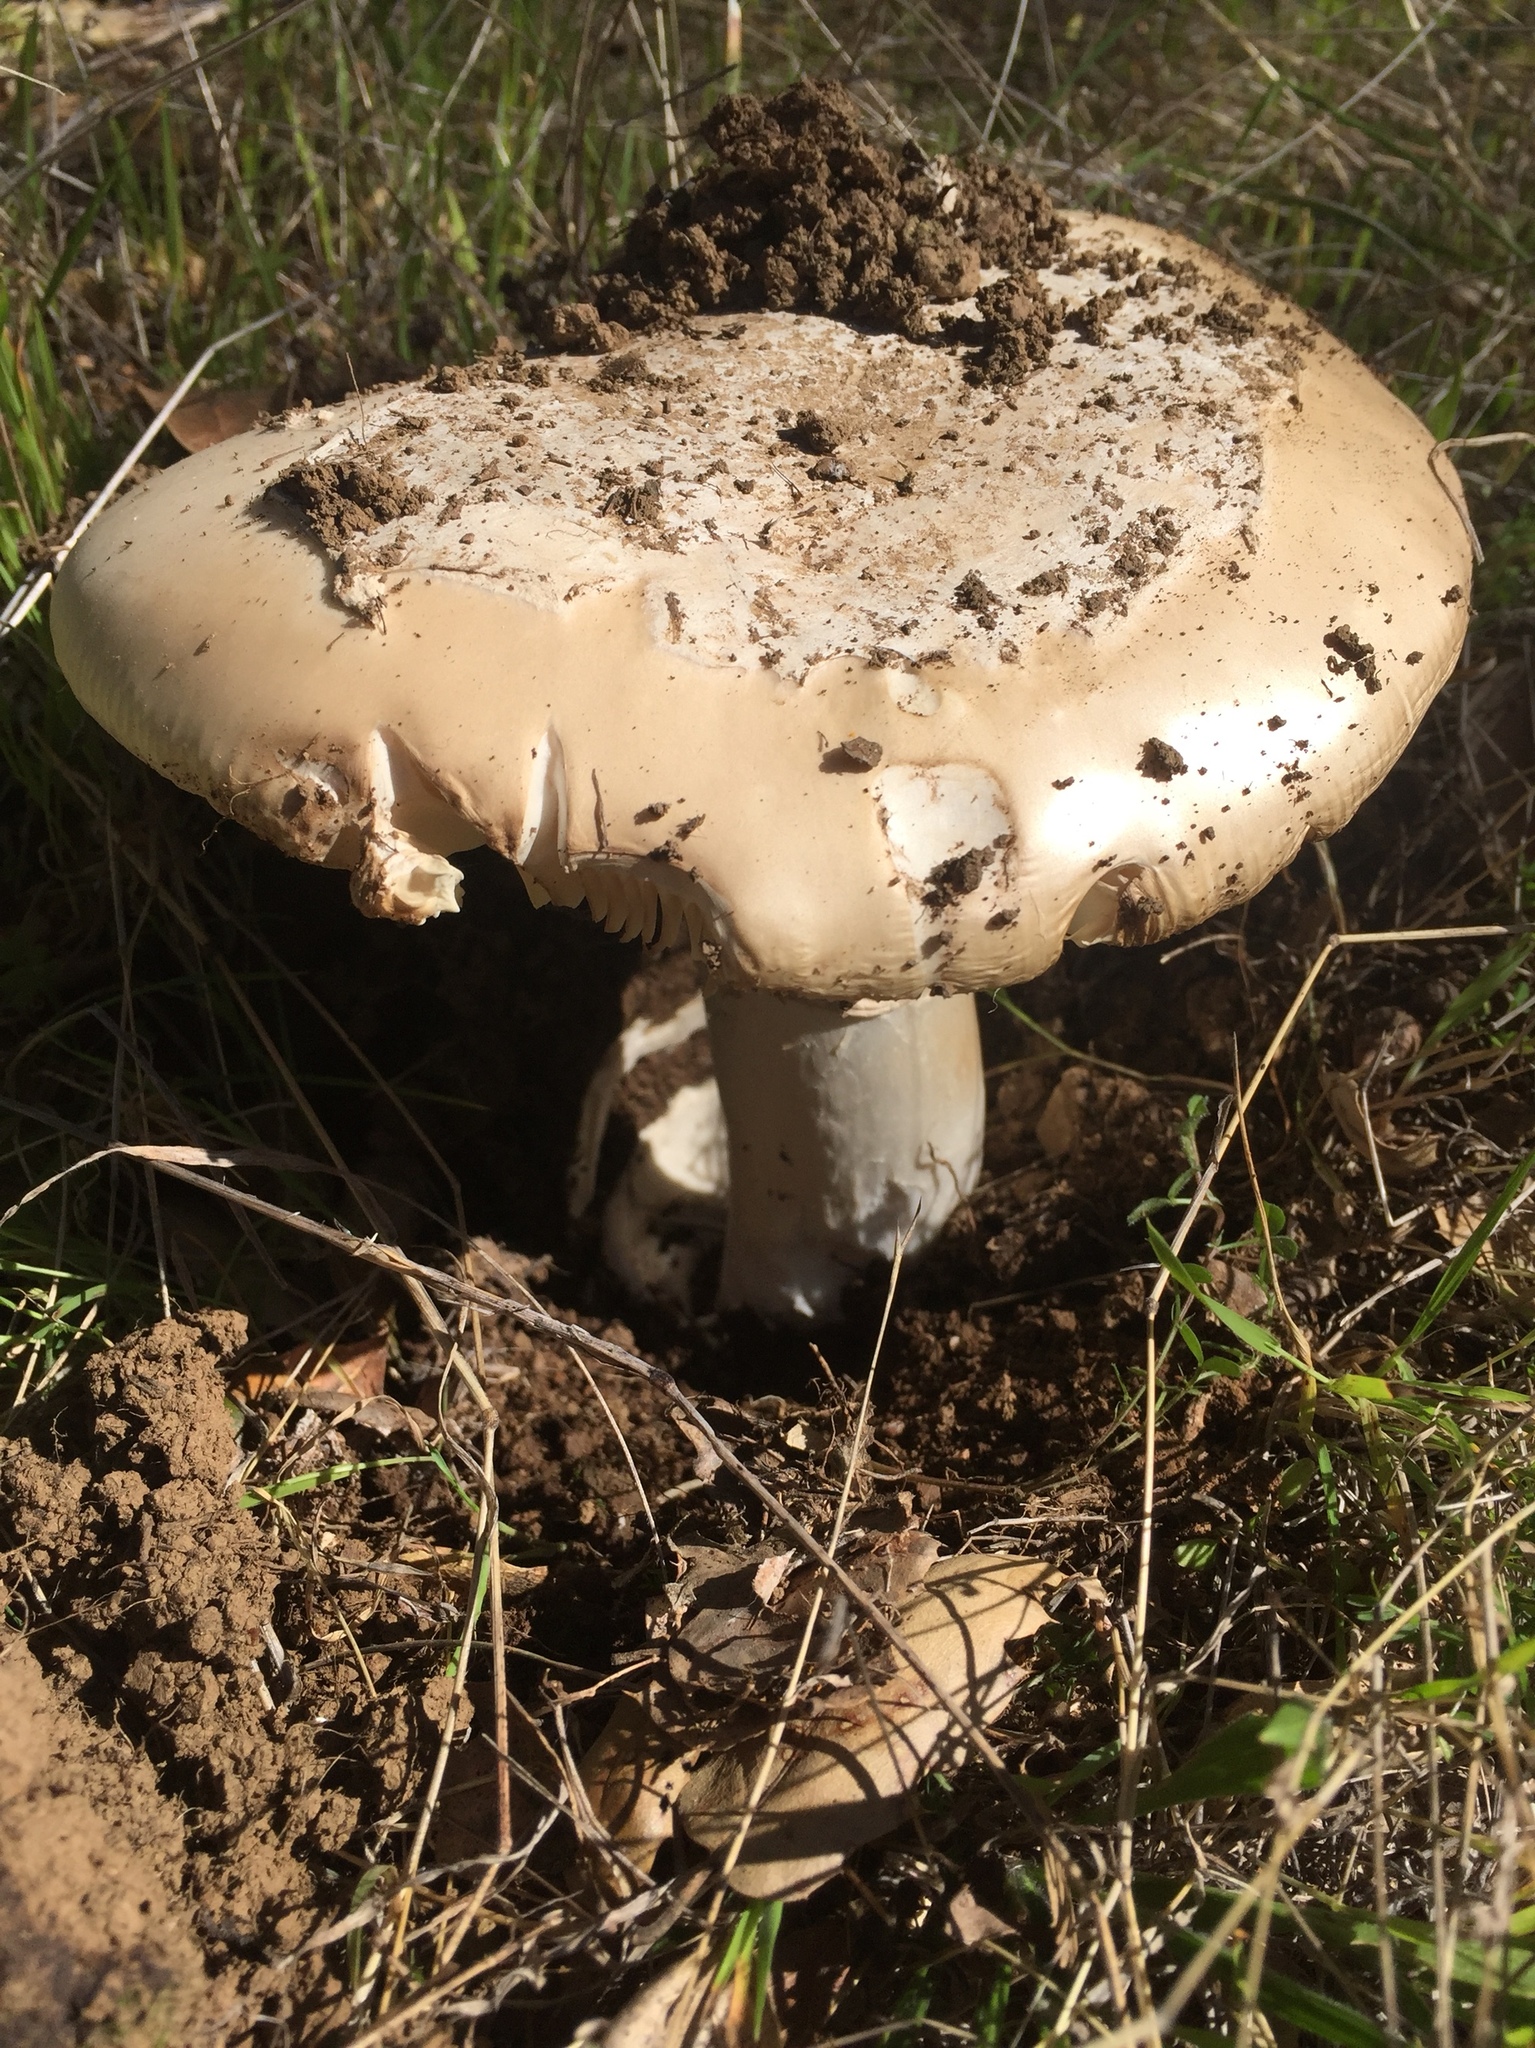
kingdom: Fungi
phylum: Basidiomycota
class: Agaricomycetes
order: Agaricales
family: Amanitaceae
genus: Amanita
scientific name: Amanita vernicoccora
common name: Spring coccora
